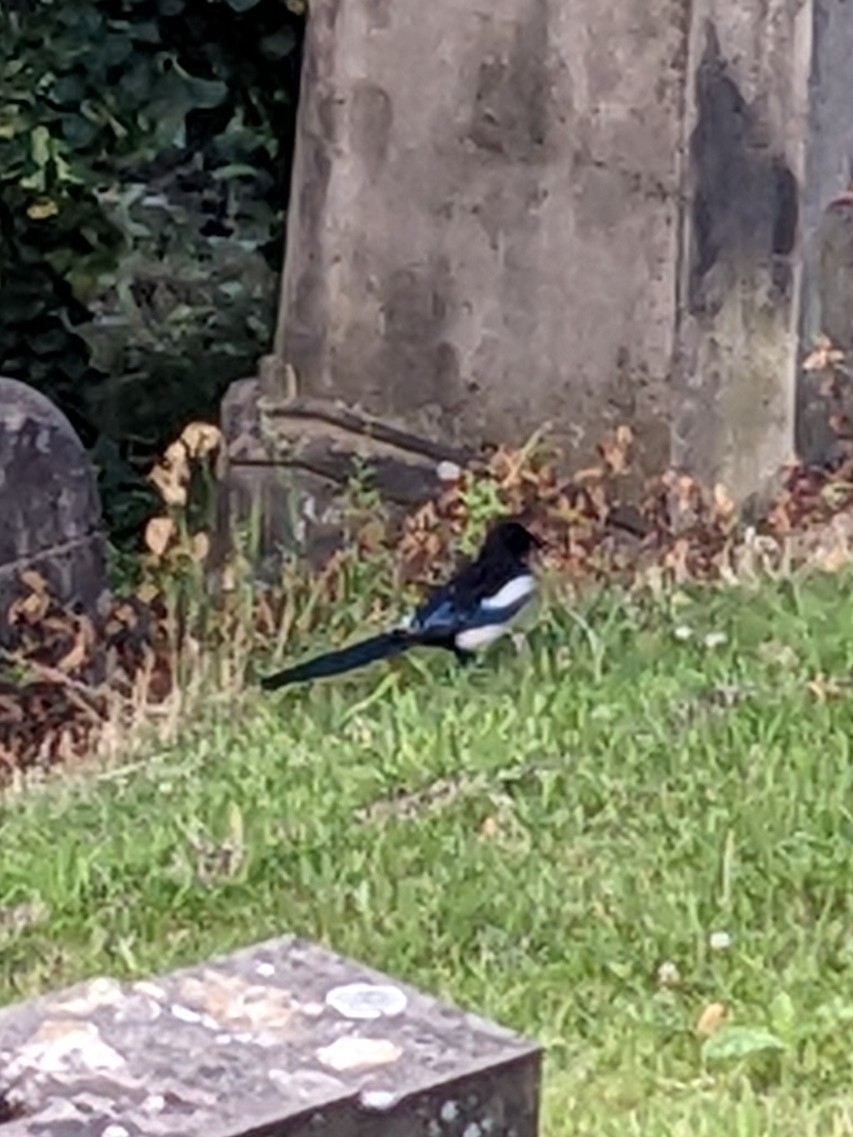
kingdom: Animalia
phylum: Chordata
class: Aves
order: Passeriformes
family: Corvidae
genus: Pica
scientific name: Pica pica
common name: Eurasian magpie
